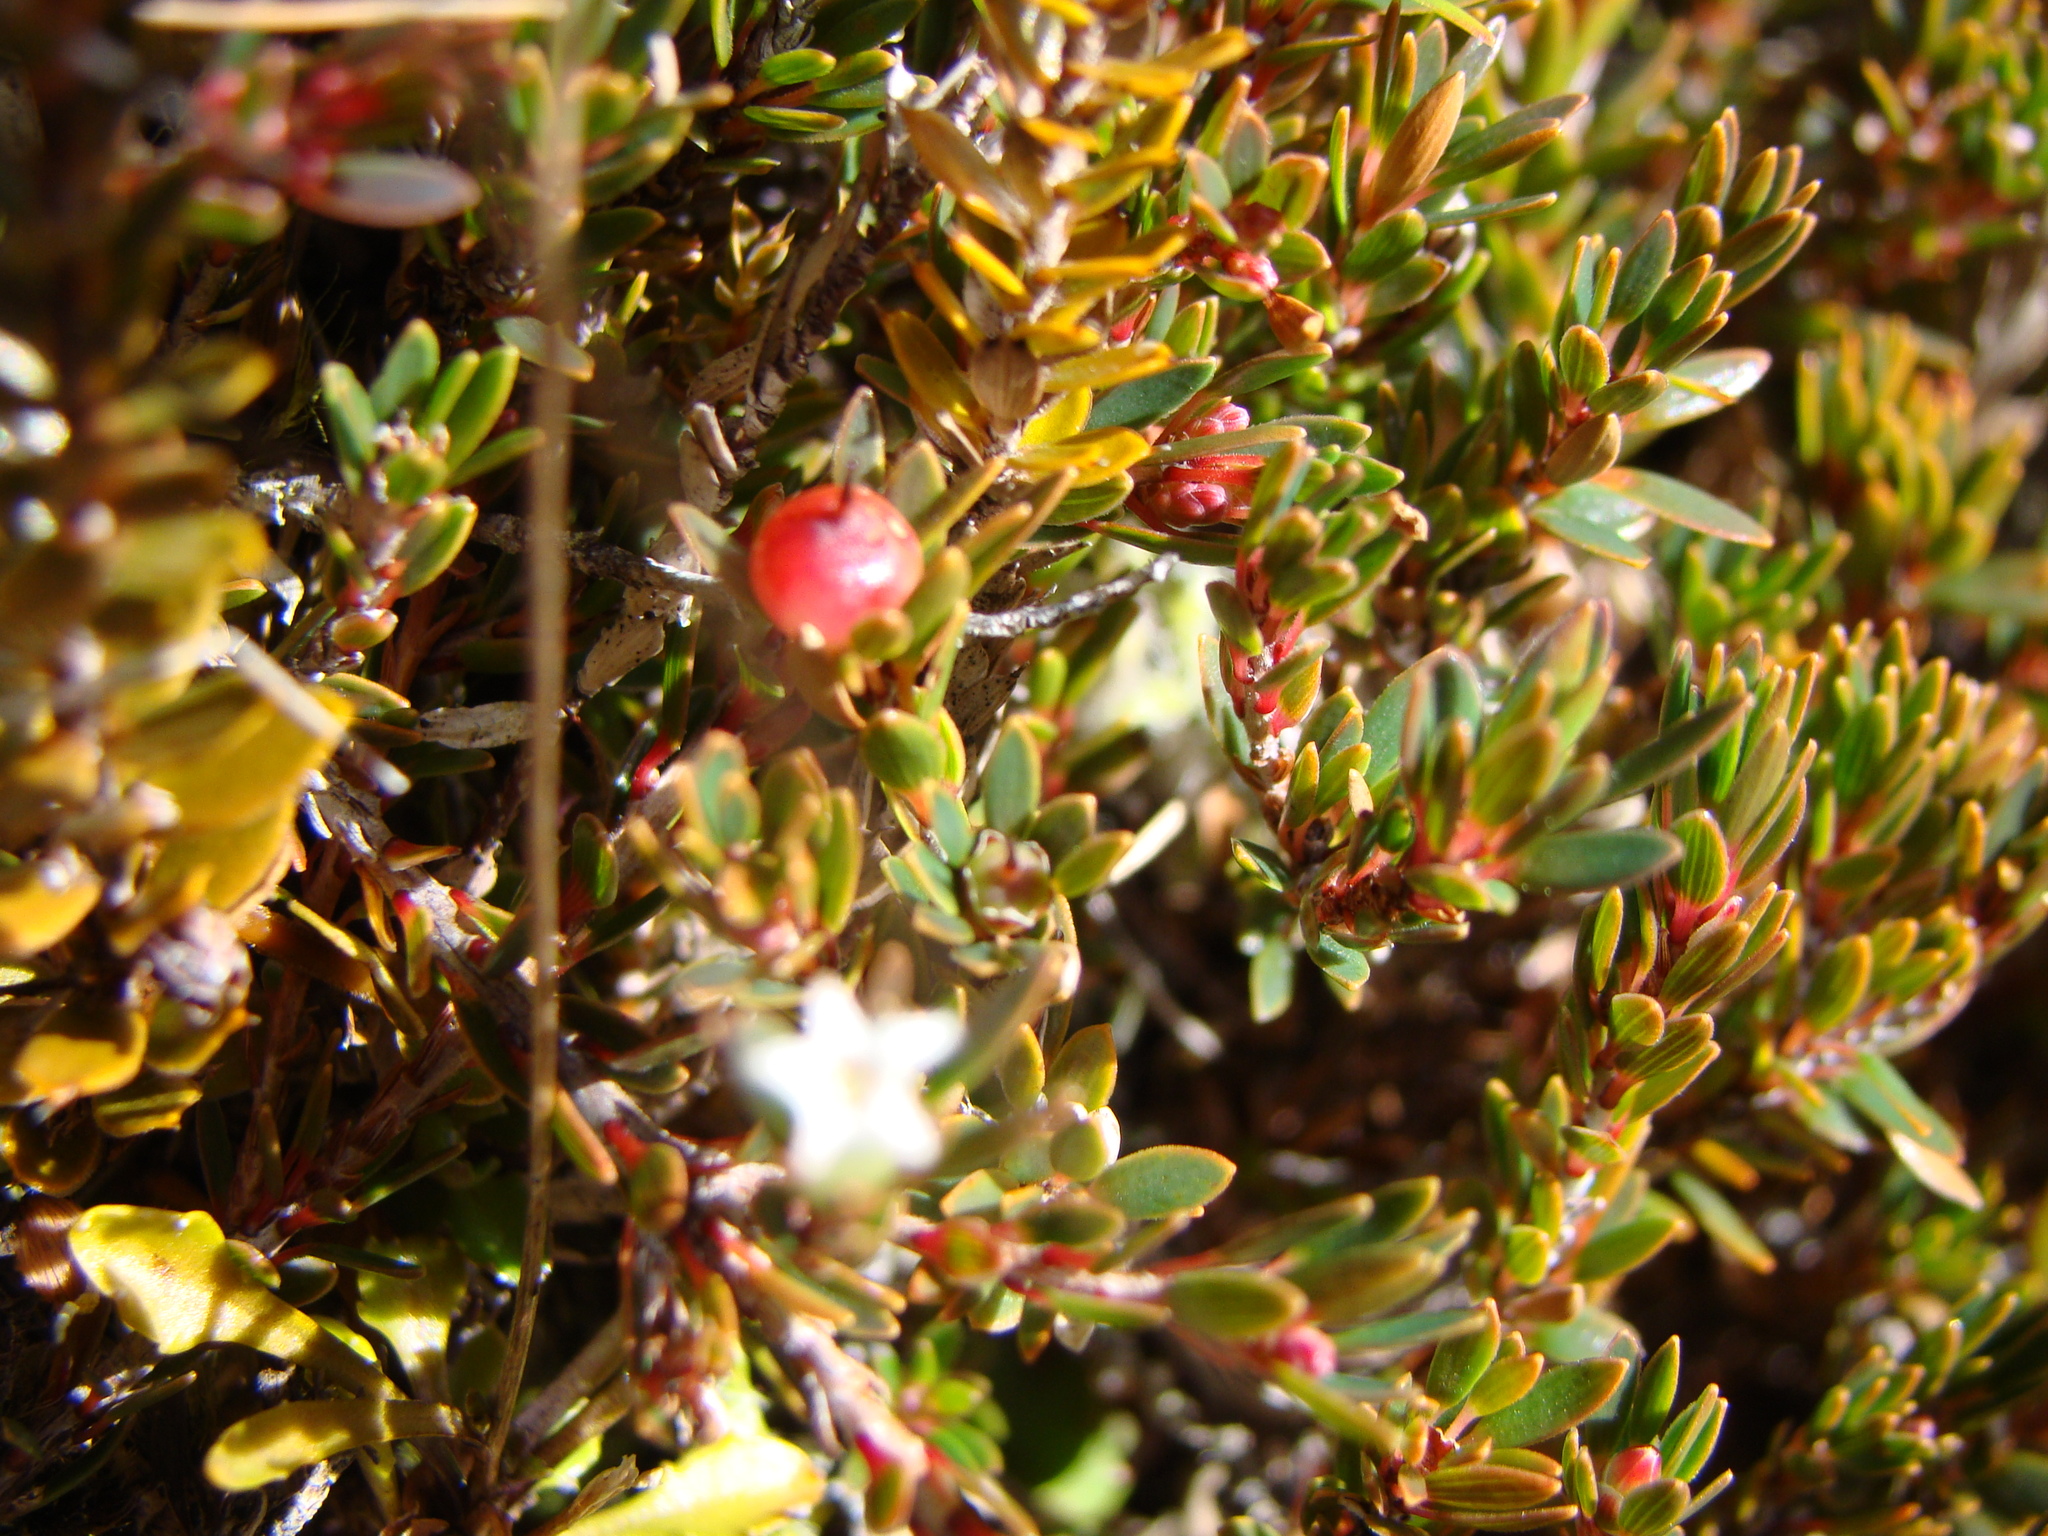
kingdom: Plantae
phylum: Tracheophyta
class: Magnoliopsida
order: Ericales
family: Ericaceae
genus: Pentachondra
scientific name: Pentachondra pumila
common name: Carpet-heath
